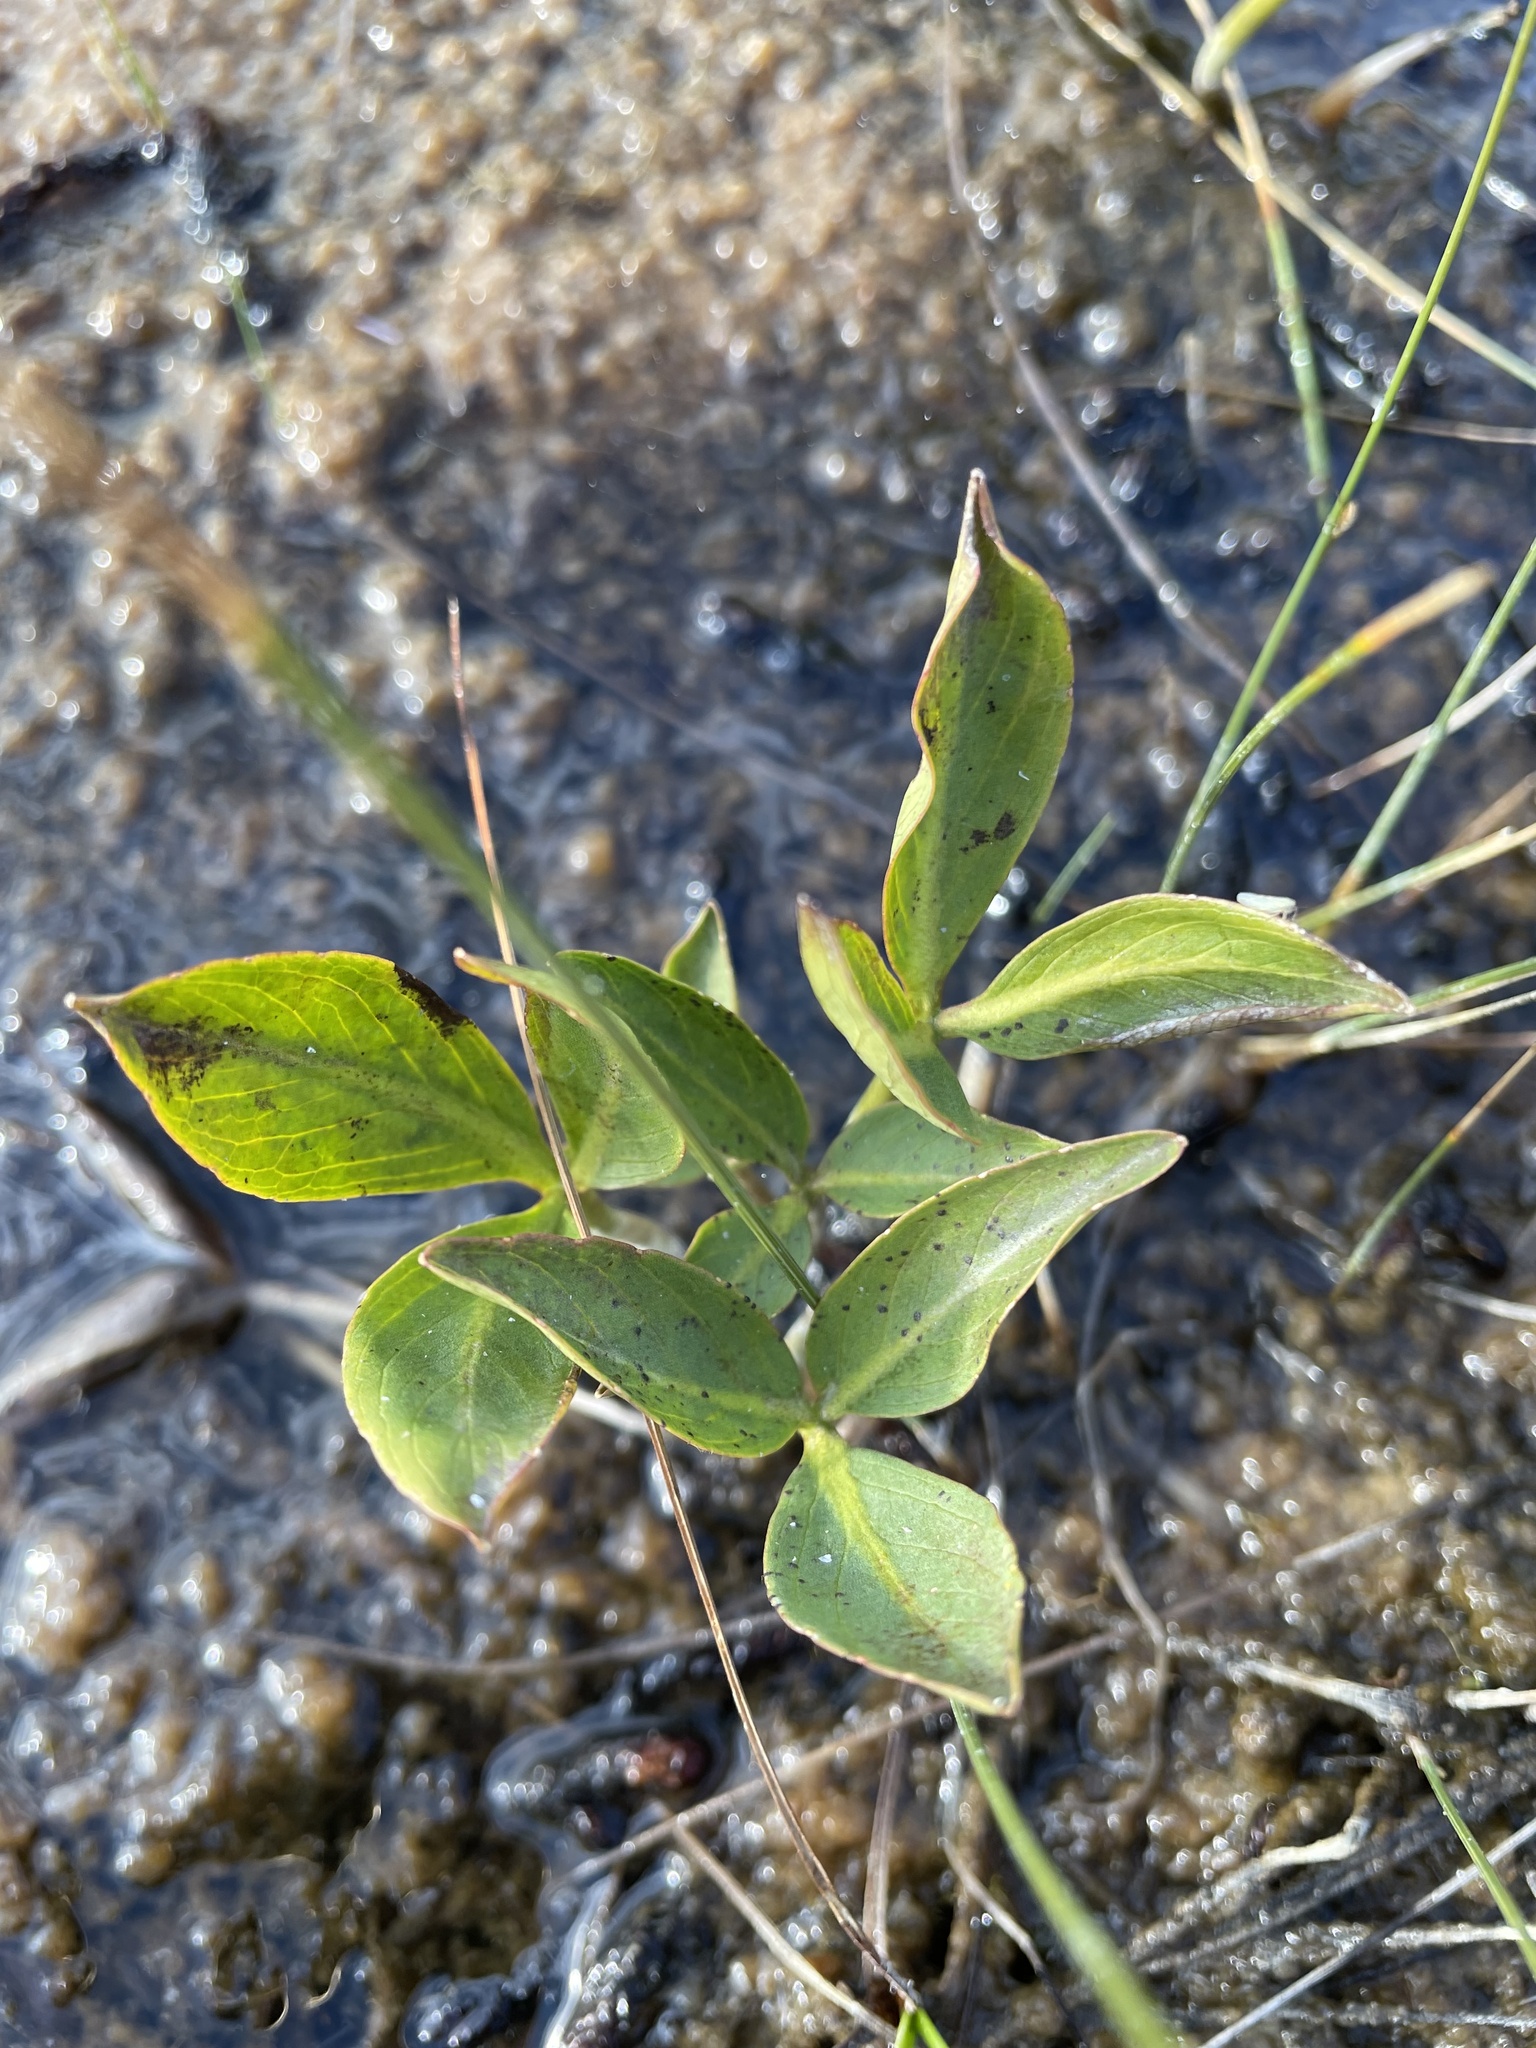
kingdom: Plantae
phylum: Tracheophyta
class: Magnoliopsida
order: Asterales
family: Menyanthaceae
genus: Menyanthes
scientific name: Menyanthes trifoliata
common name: Bogbean
